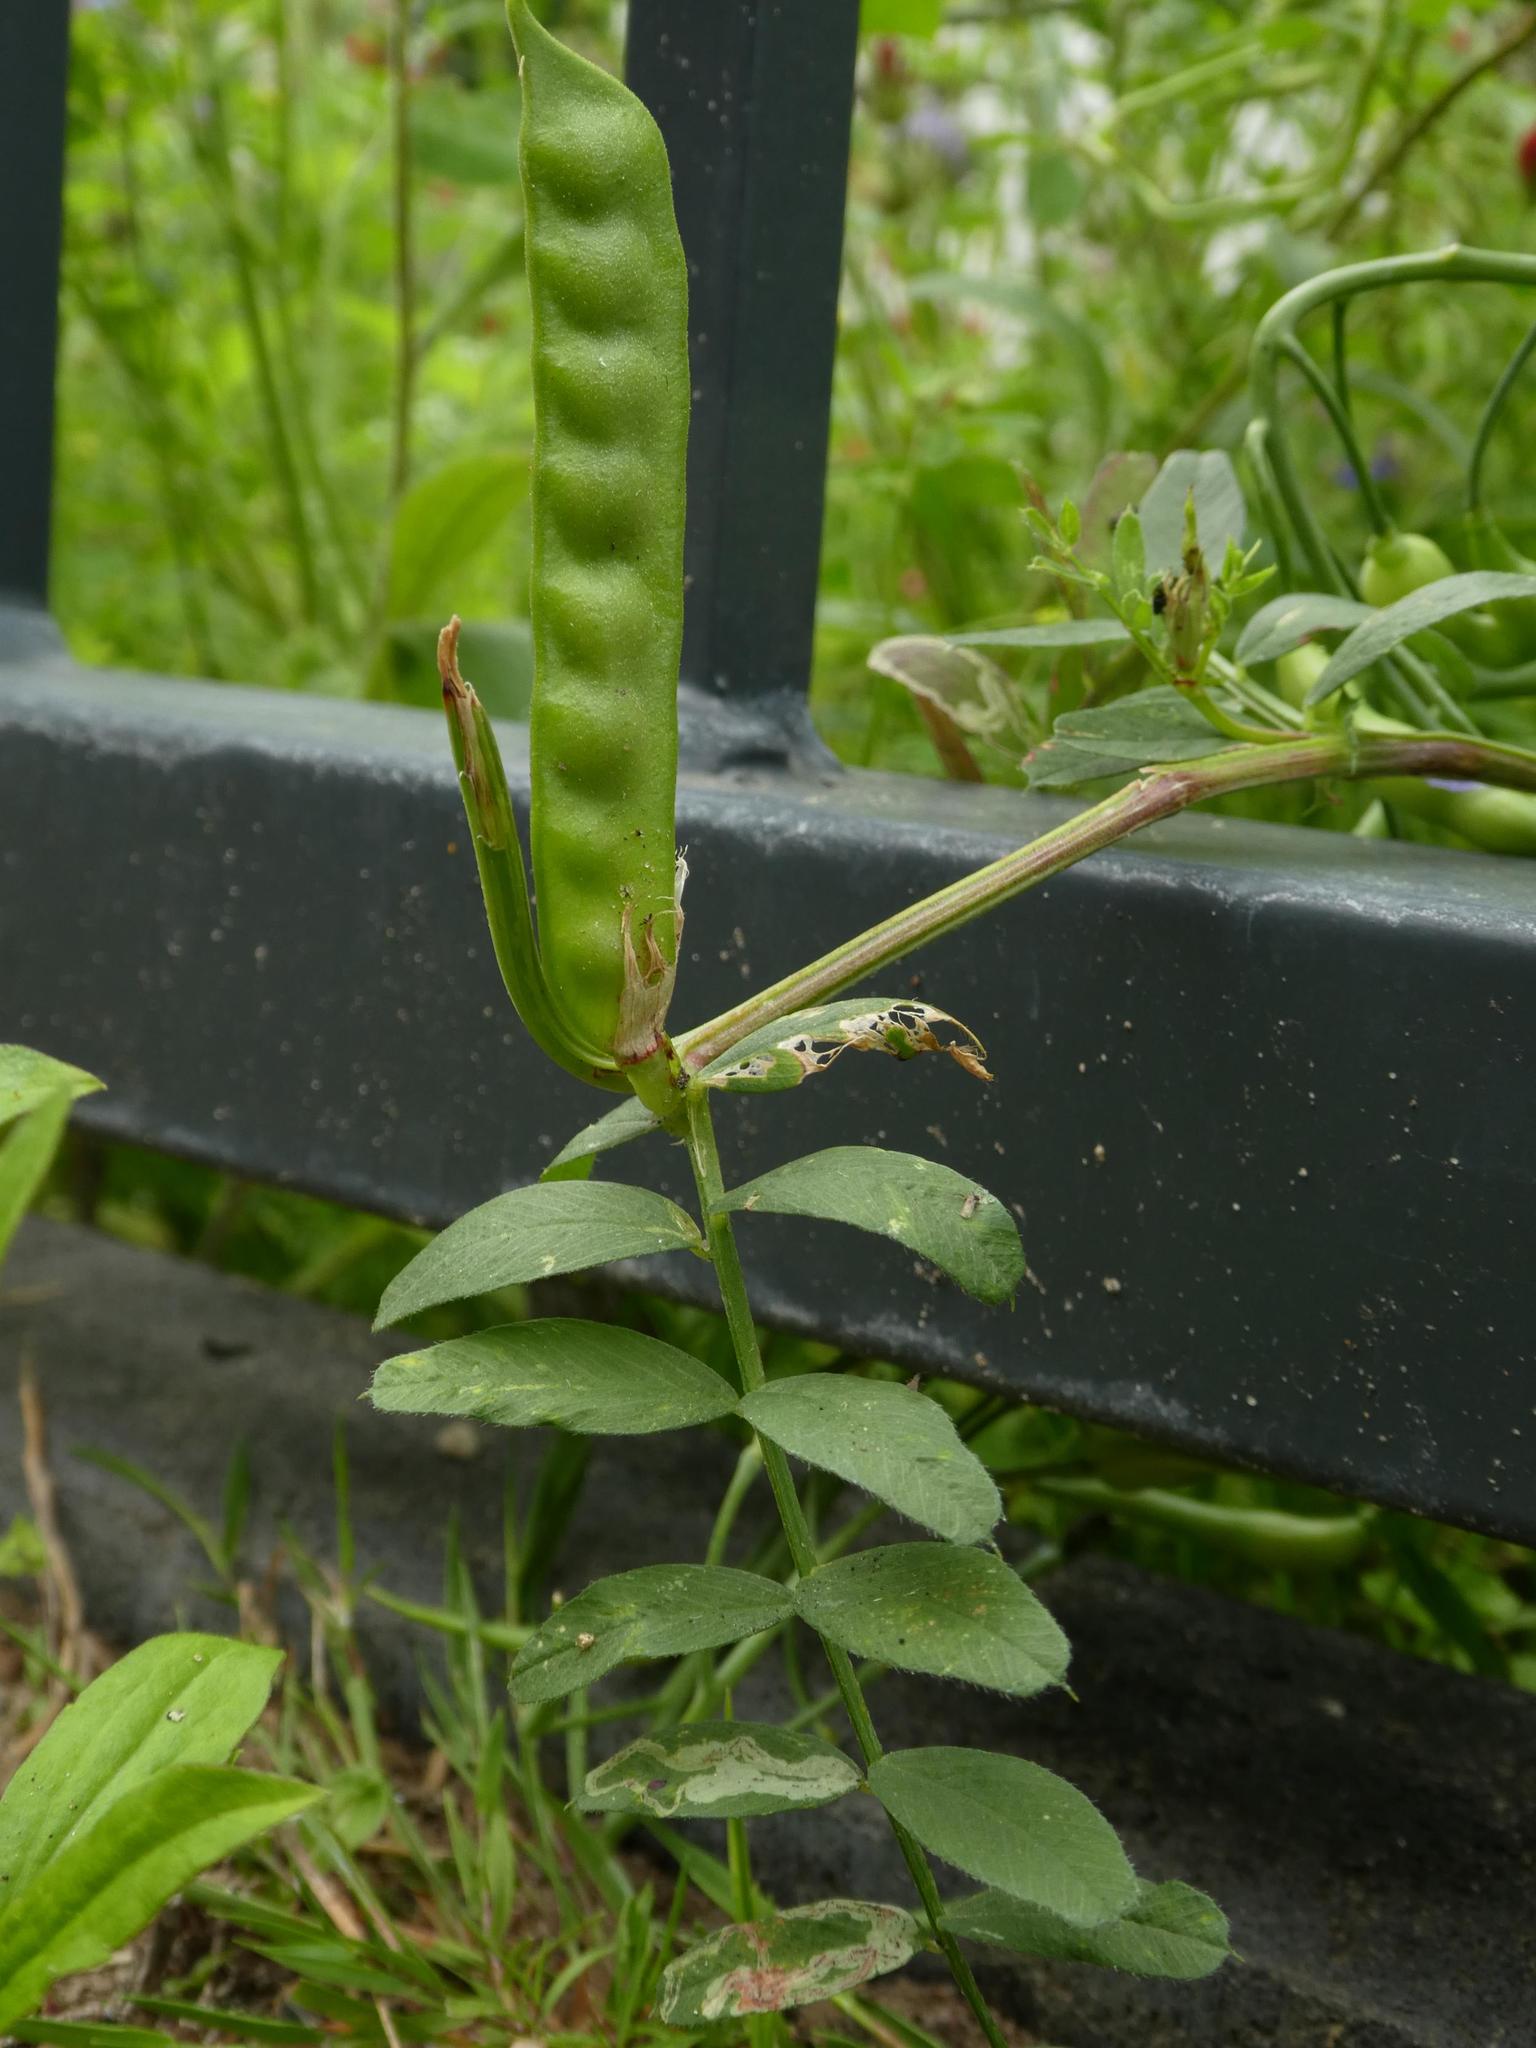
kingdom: Plantae
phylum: Tracheophyta
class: Magnoliopsida
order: Fabales
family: Fabaceae
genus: Vicia
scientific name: Vicia sativa
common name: Garden vetch
